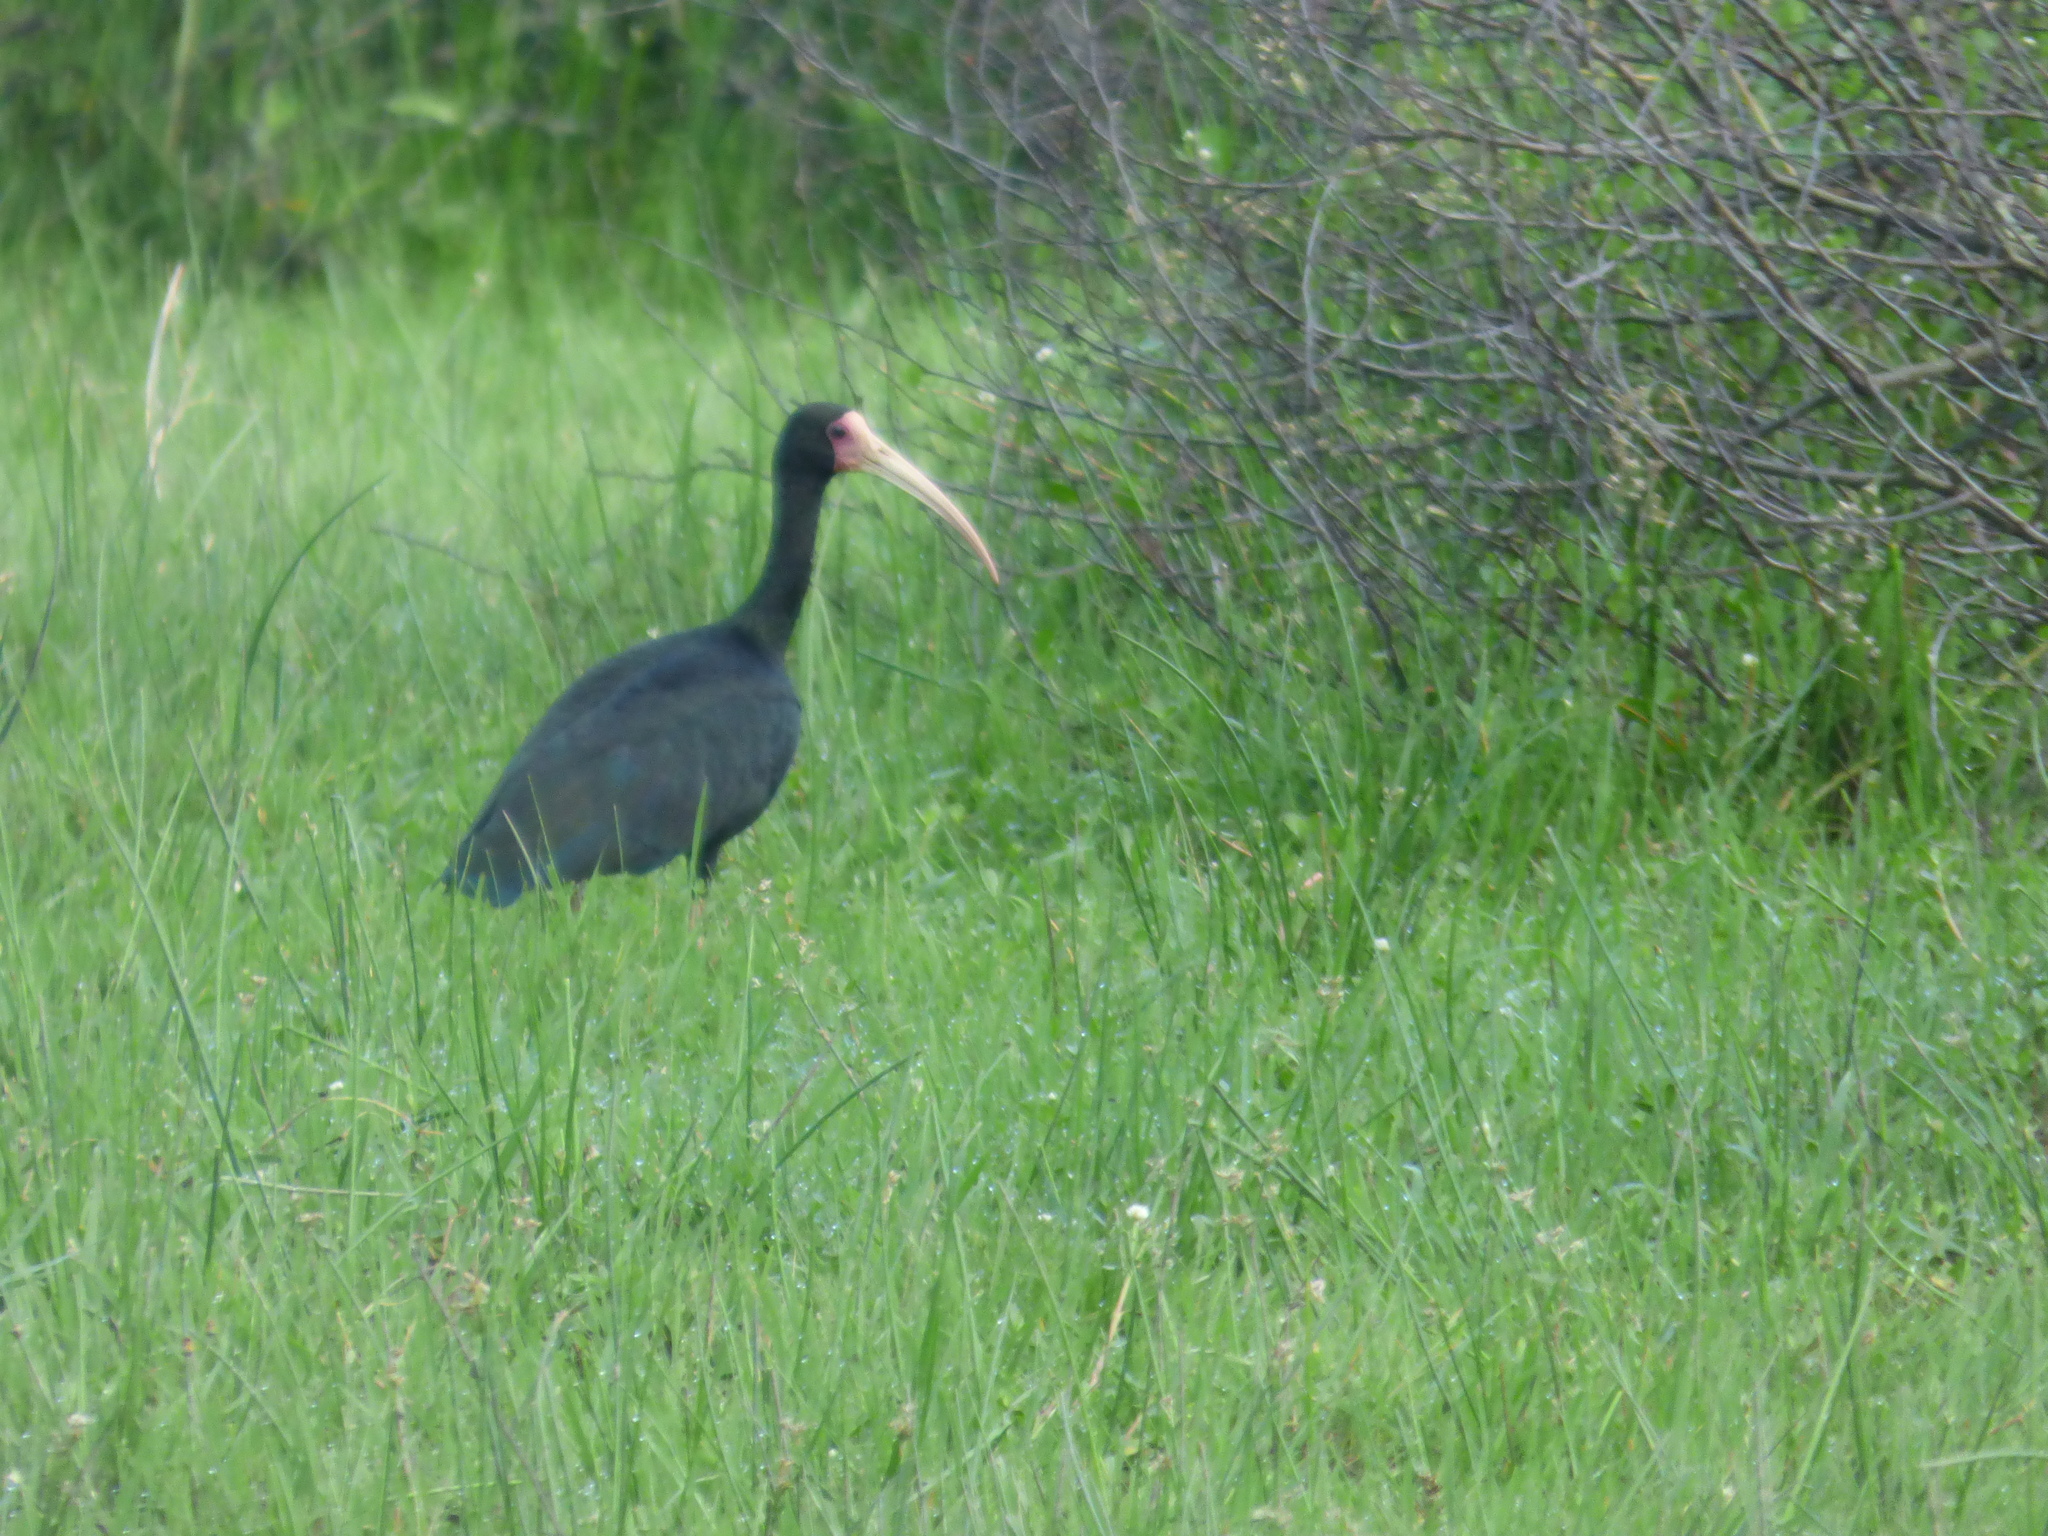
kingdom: Animalia
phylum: Chordata
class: Aves
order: Pelecaniformes
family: Threskiornithidae
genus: Phimosus
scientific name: Phimosus infuscatus
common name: Bare-faced ibis
